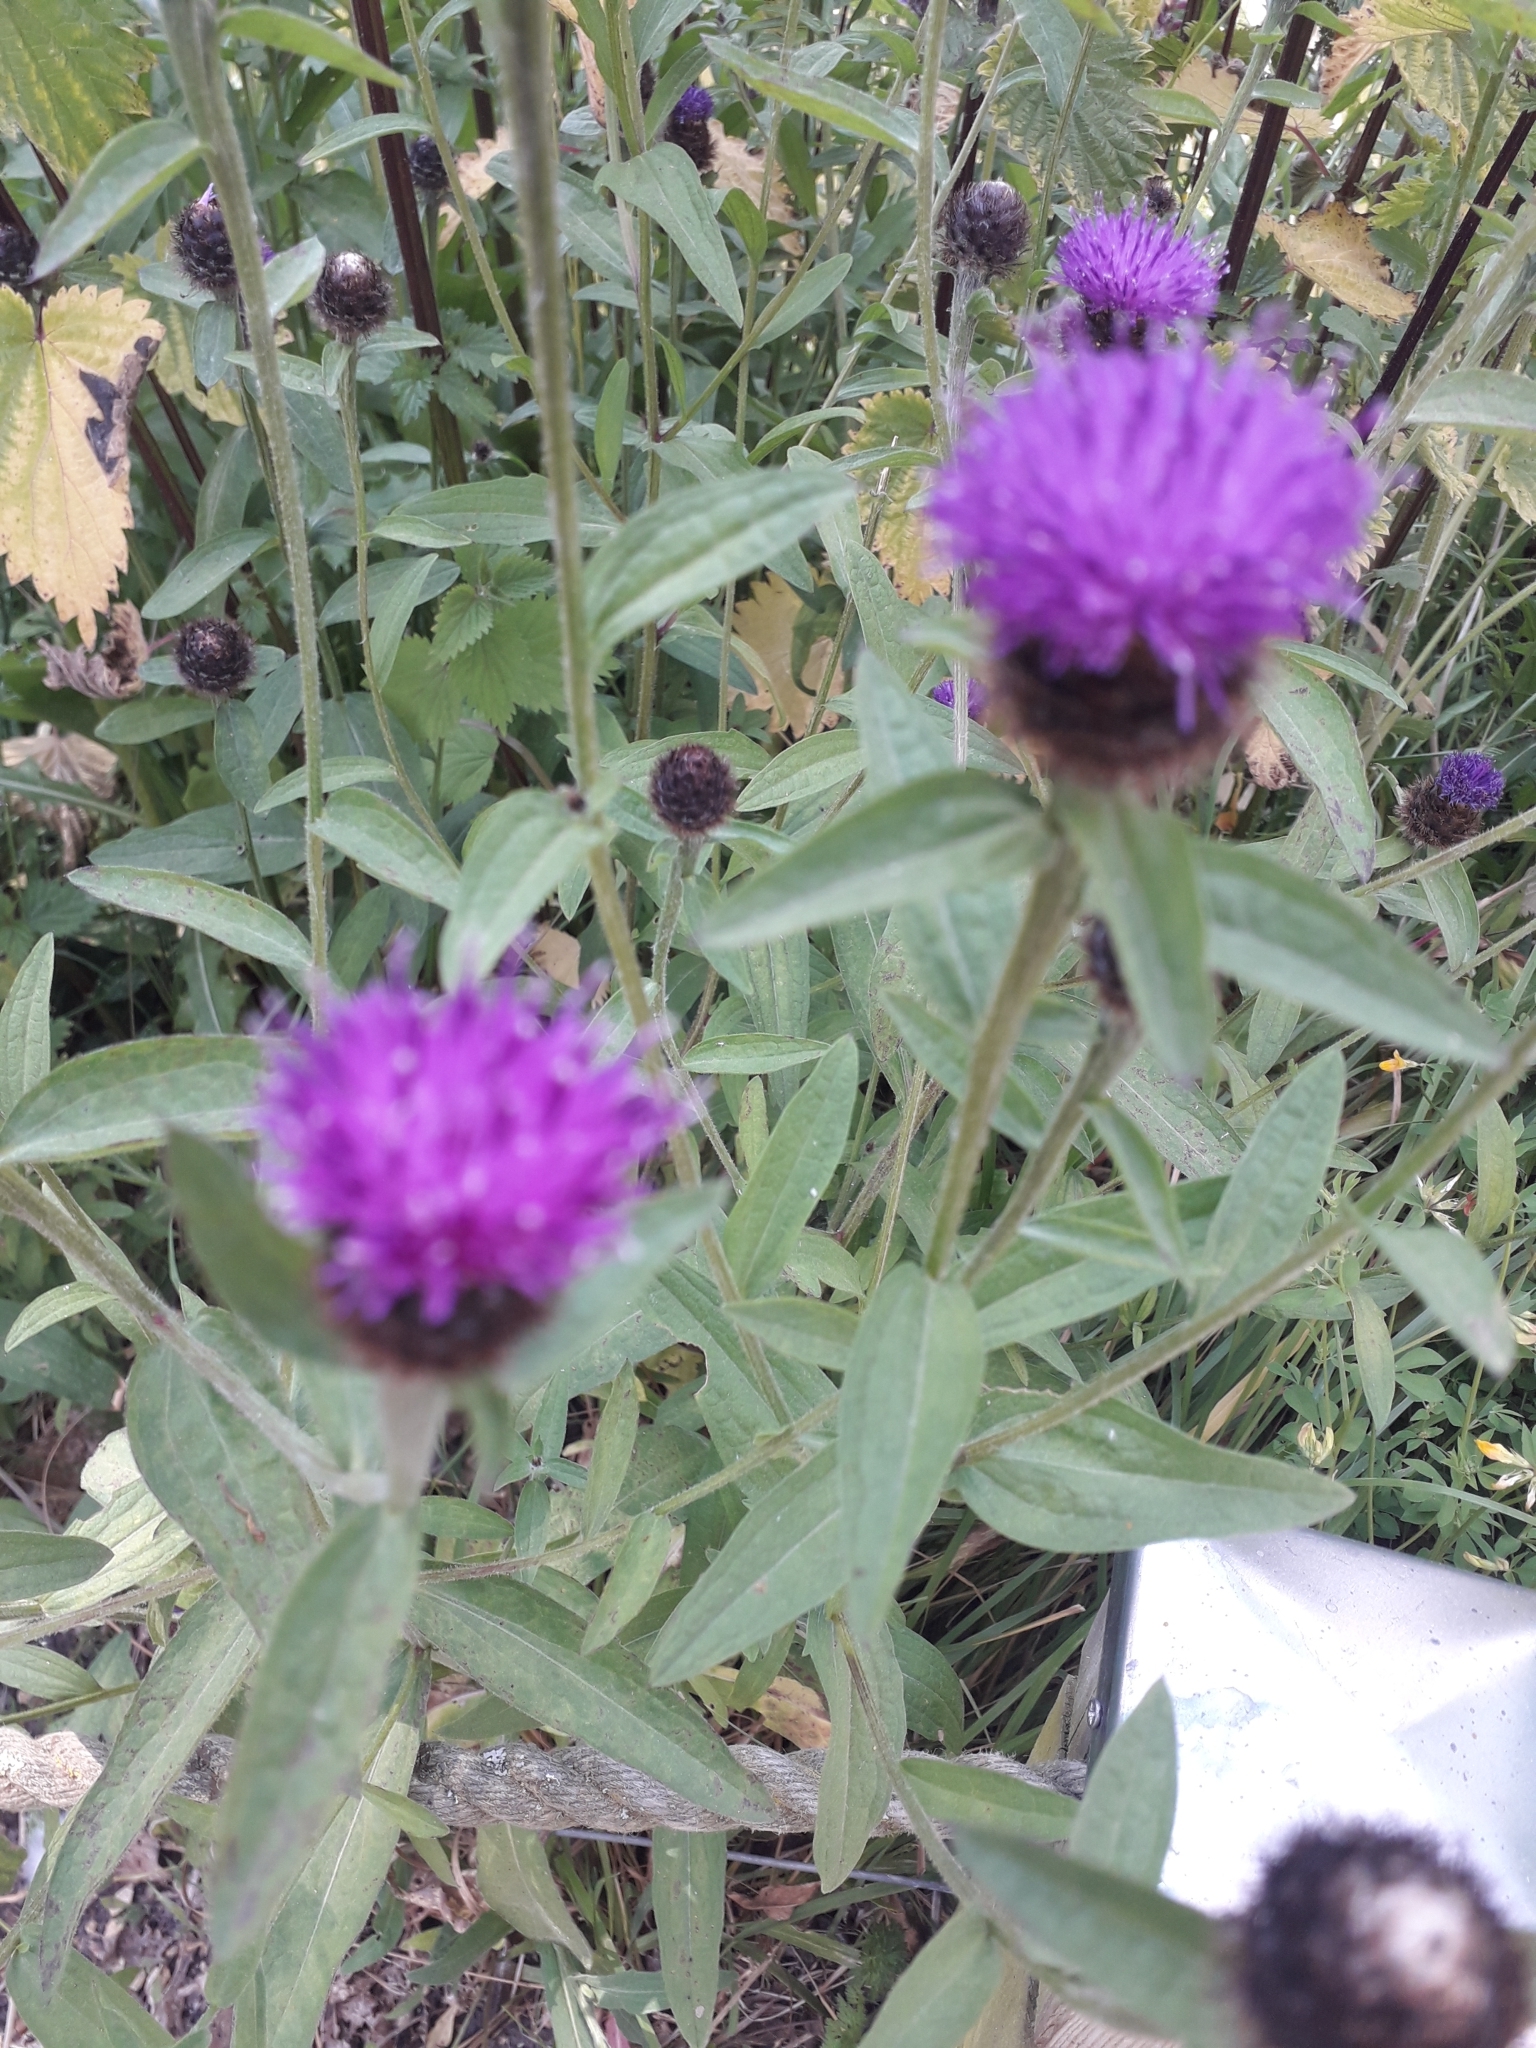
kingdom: Plantae
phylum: Tracheophyta
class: Magnoliopsida
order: Asterales
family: Asteraceae
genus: Centaurea
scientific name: Centaurea nigra
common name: Lesser knapweed
